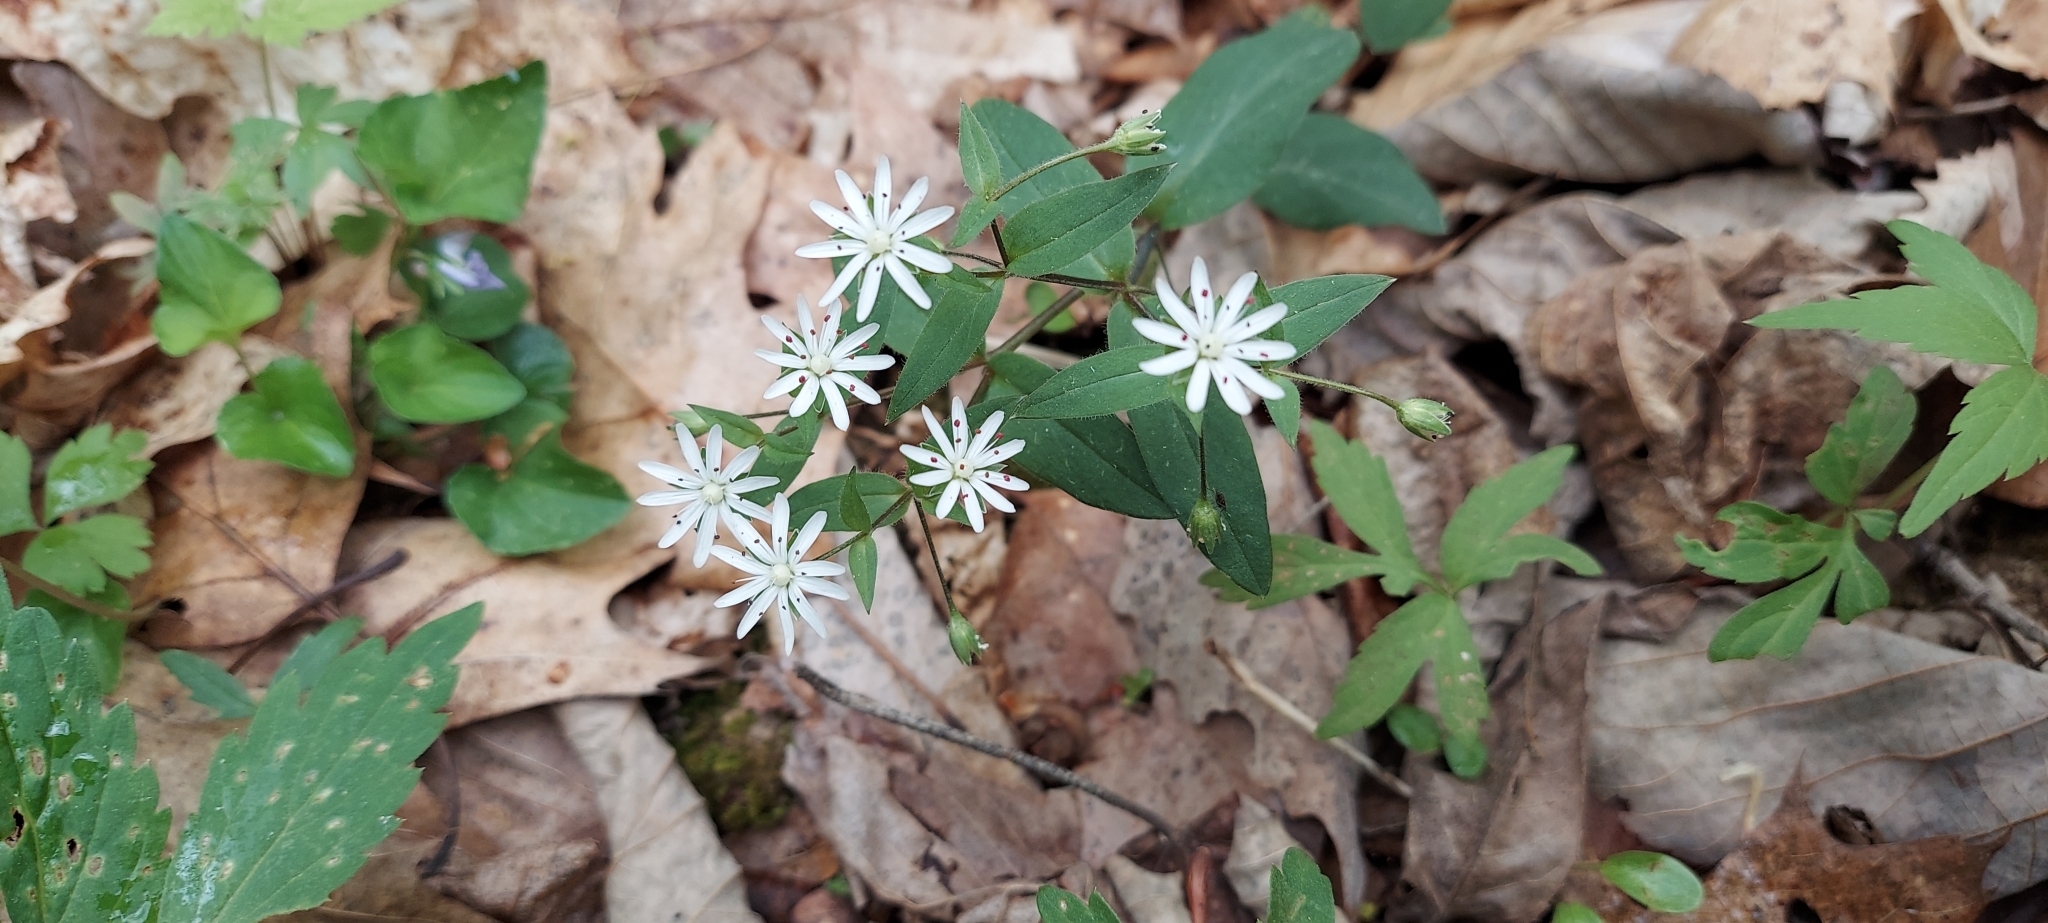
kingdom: Plantae
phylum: Tracheophyta
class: Magnoliopsida
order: Caryophyllales
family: Caryophyllaceae
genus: Stellaria
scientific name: Stellaria pubera
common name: Star chickweed
